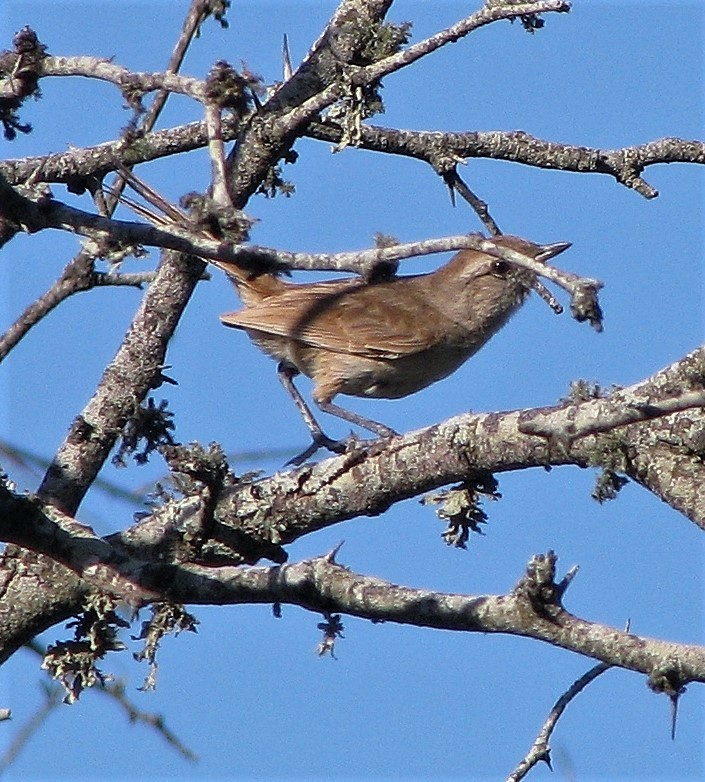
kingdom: Animalia
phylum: Chordata
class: Aves
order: Passeriformes
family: Furnariidae
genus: Asthenes
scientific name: Asthenes baeri
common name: Short-billed canastero
